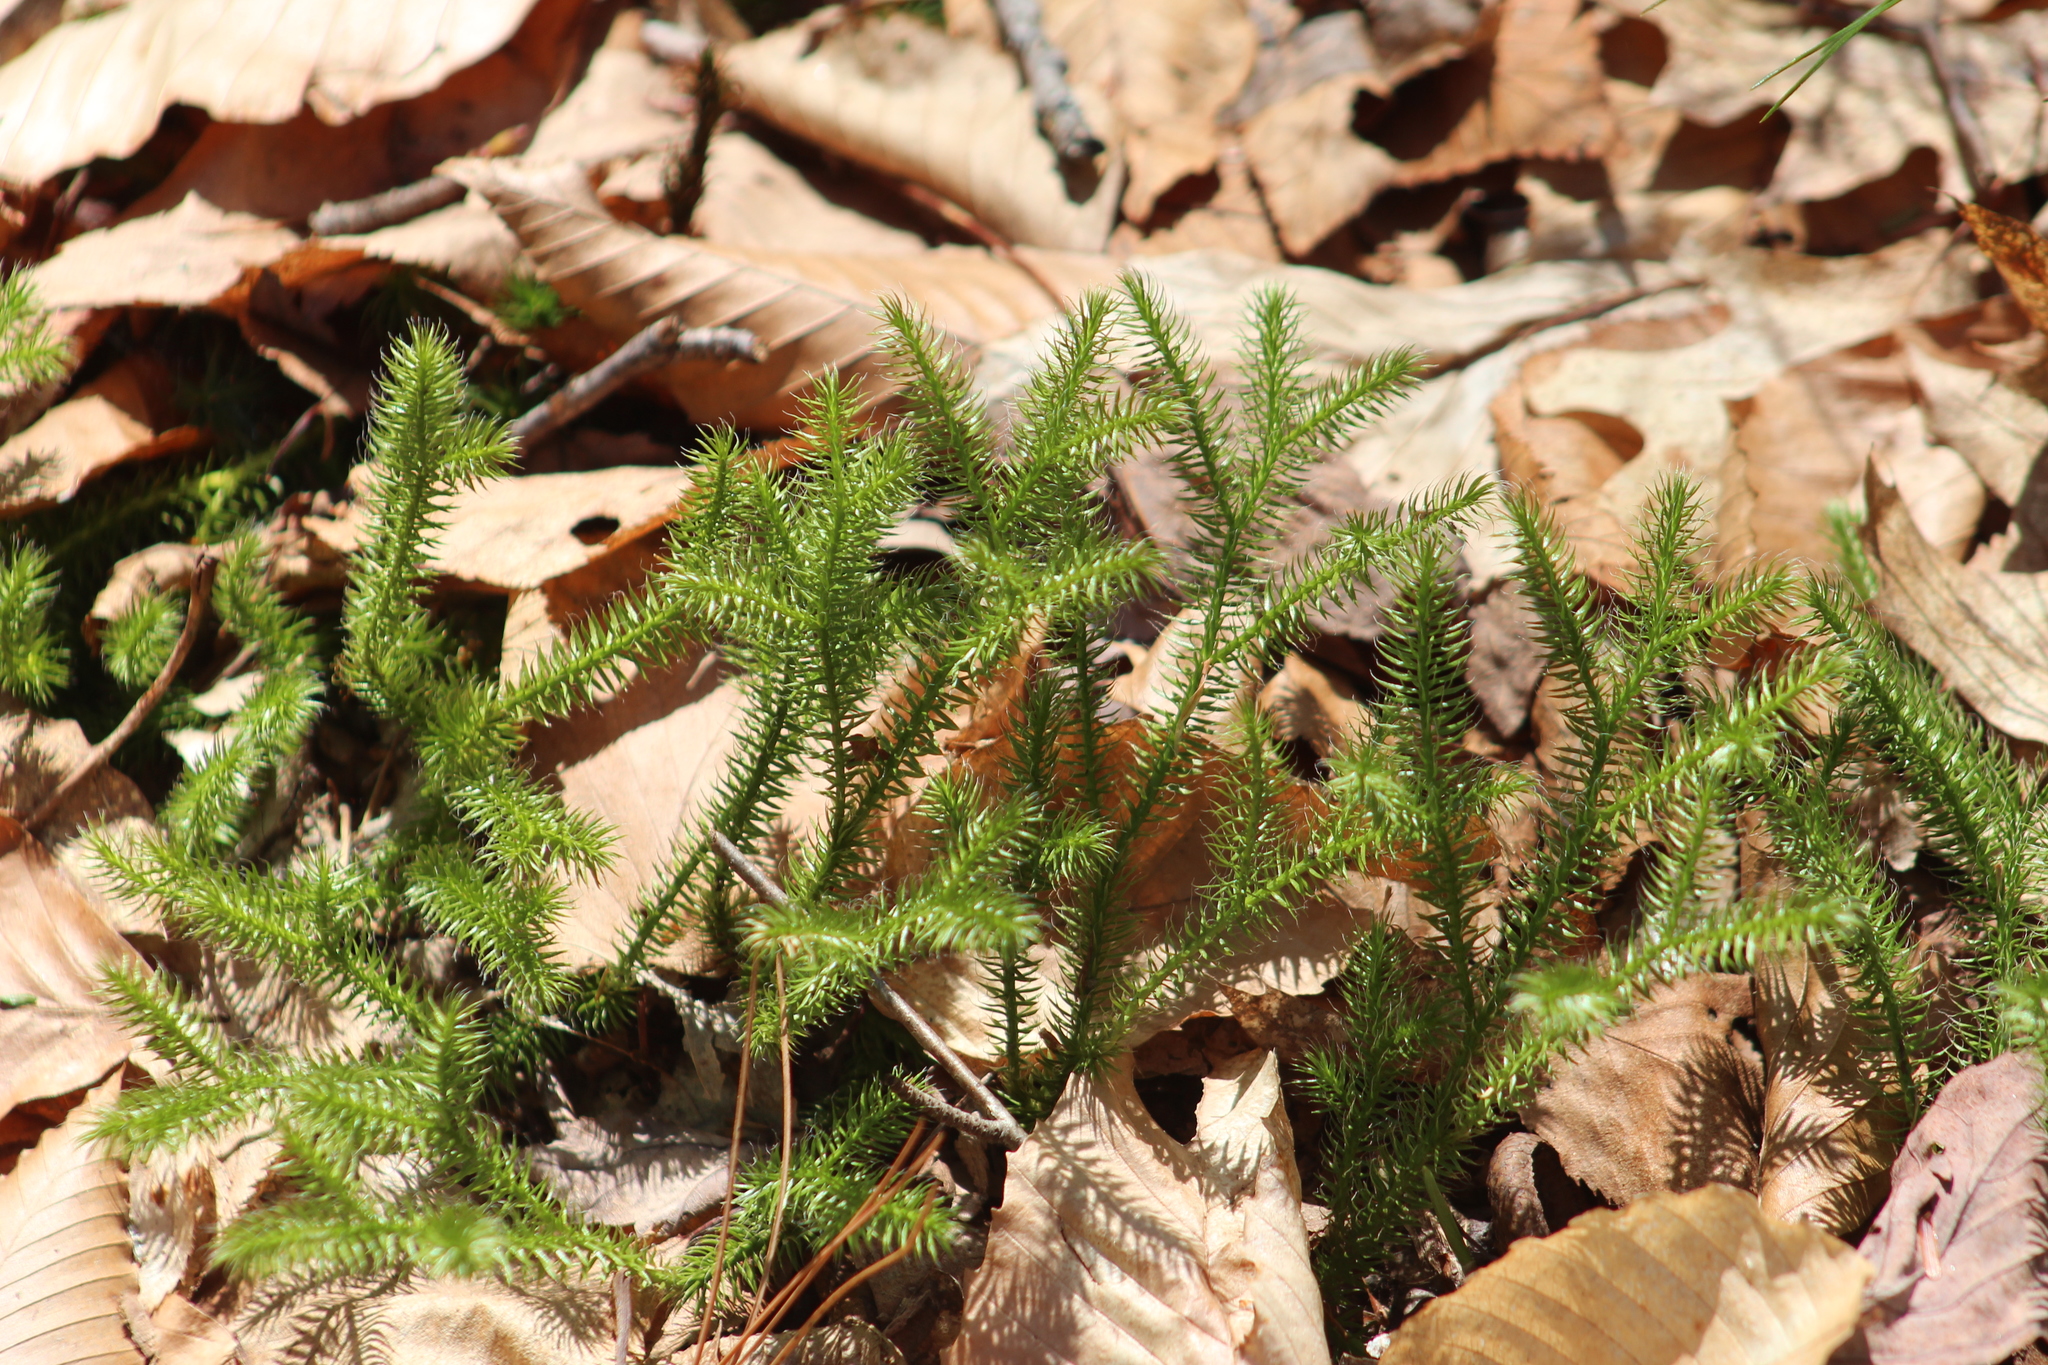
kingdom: Plantae
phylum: Tracheophyta
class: Lycopodiopsida
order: Lycopodiales
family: Lycopodiaceae
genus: Lycopodium
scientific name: Lycopodium clavatum
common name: Stag's-horn clubmoss
